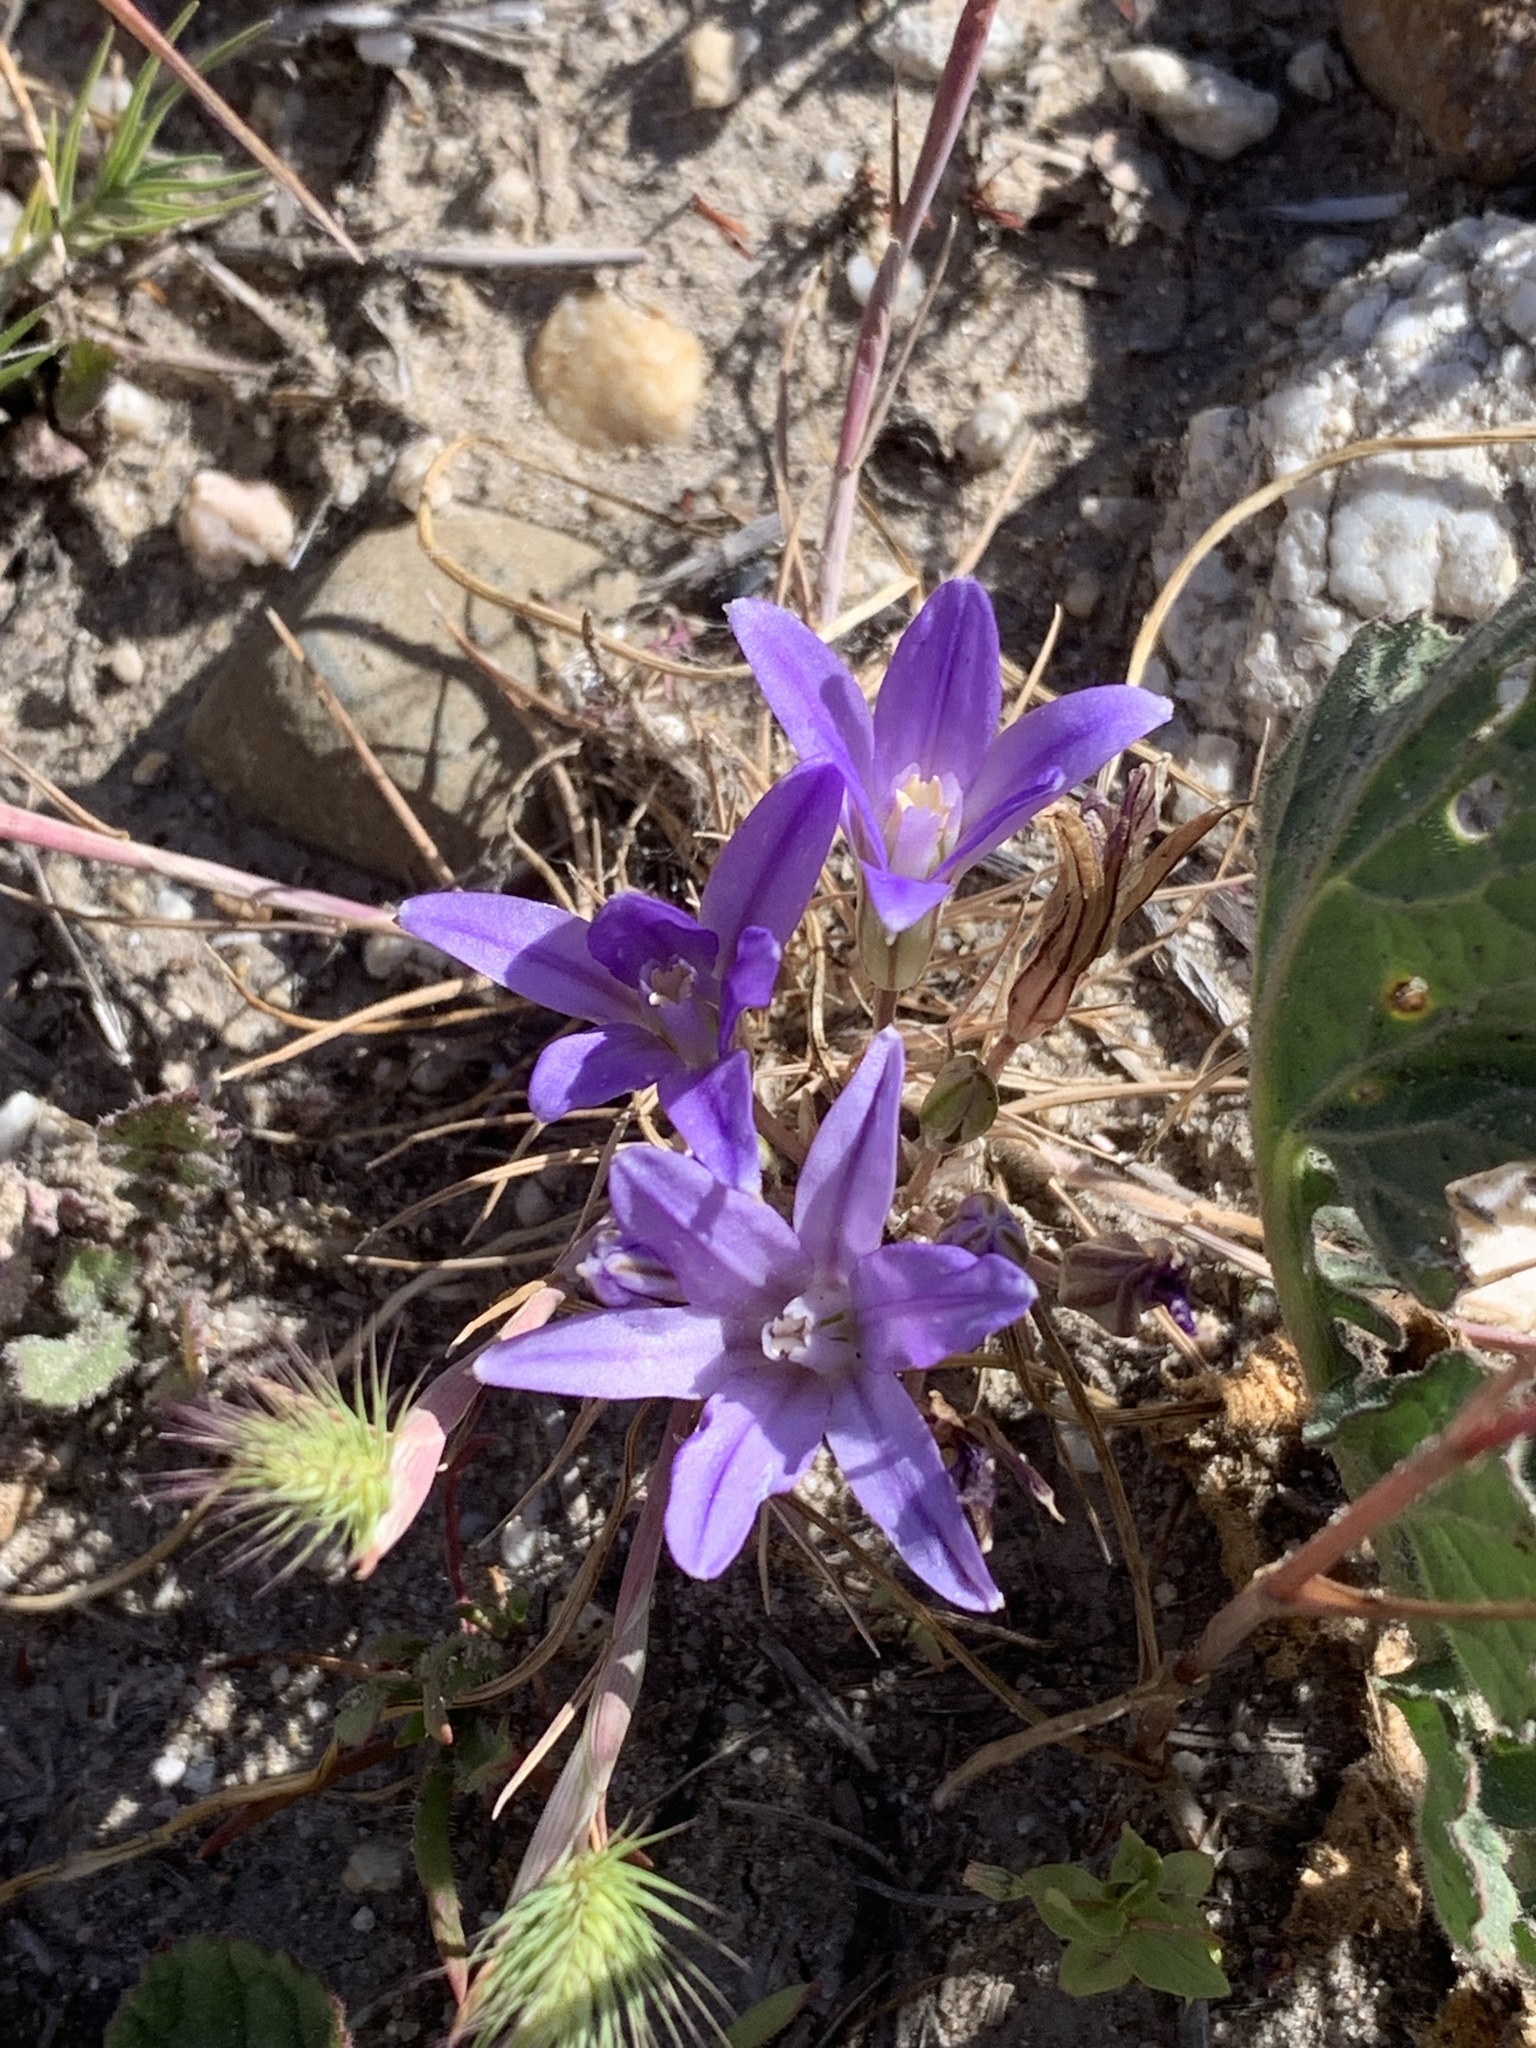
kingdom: Plantae
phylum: Tracheophyta
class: Liliopsida
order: Asparagales
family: Asparagaceae
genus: Brodiaea
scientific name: Brodiaea terrestris
